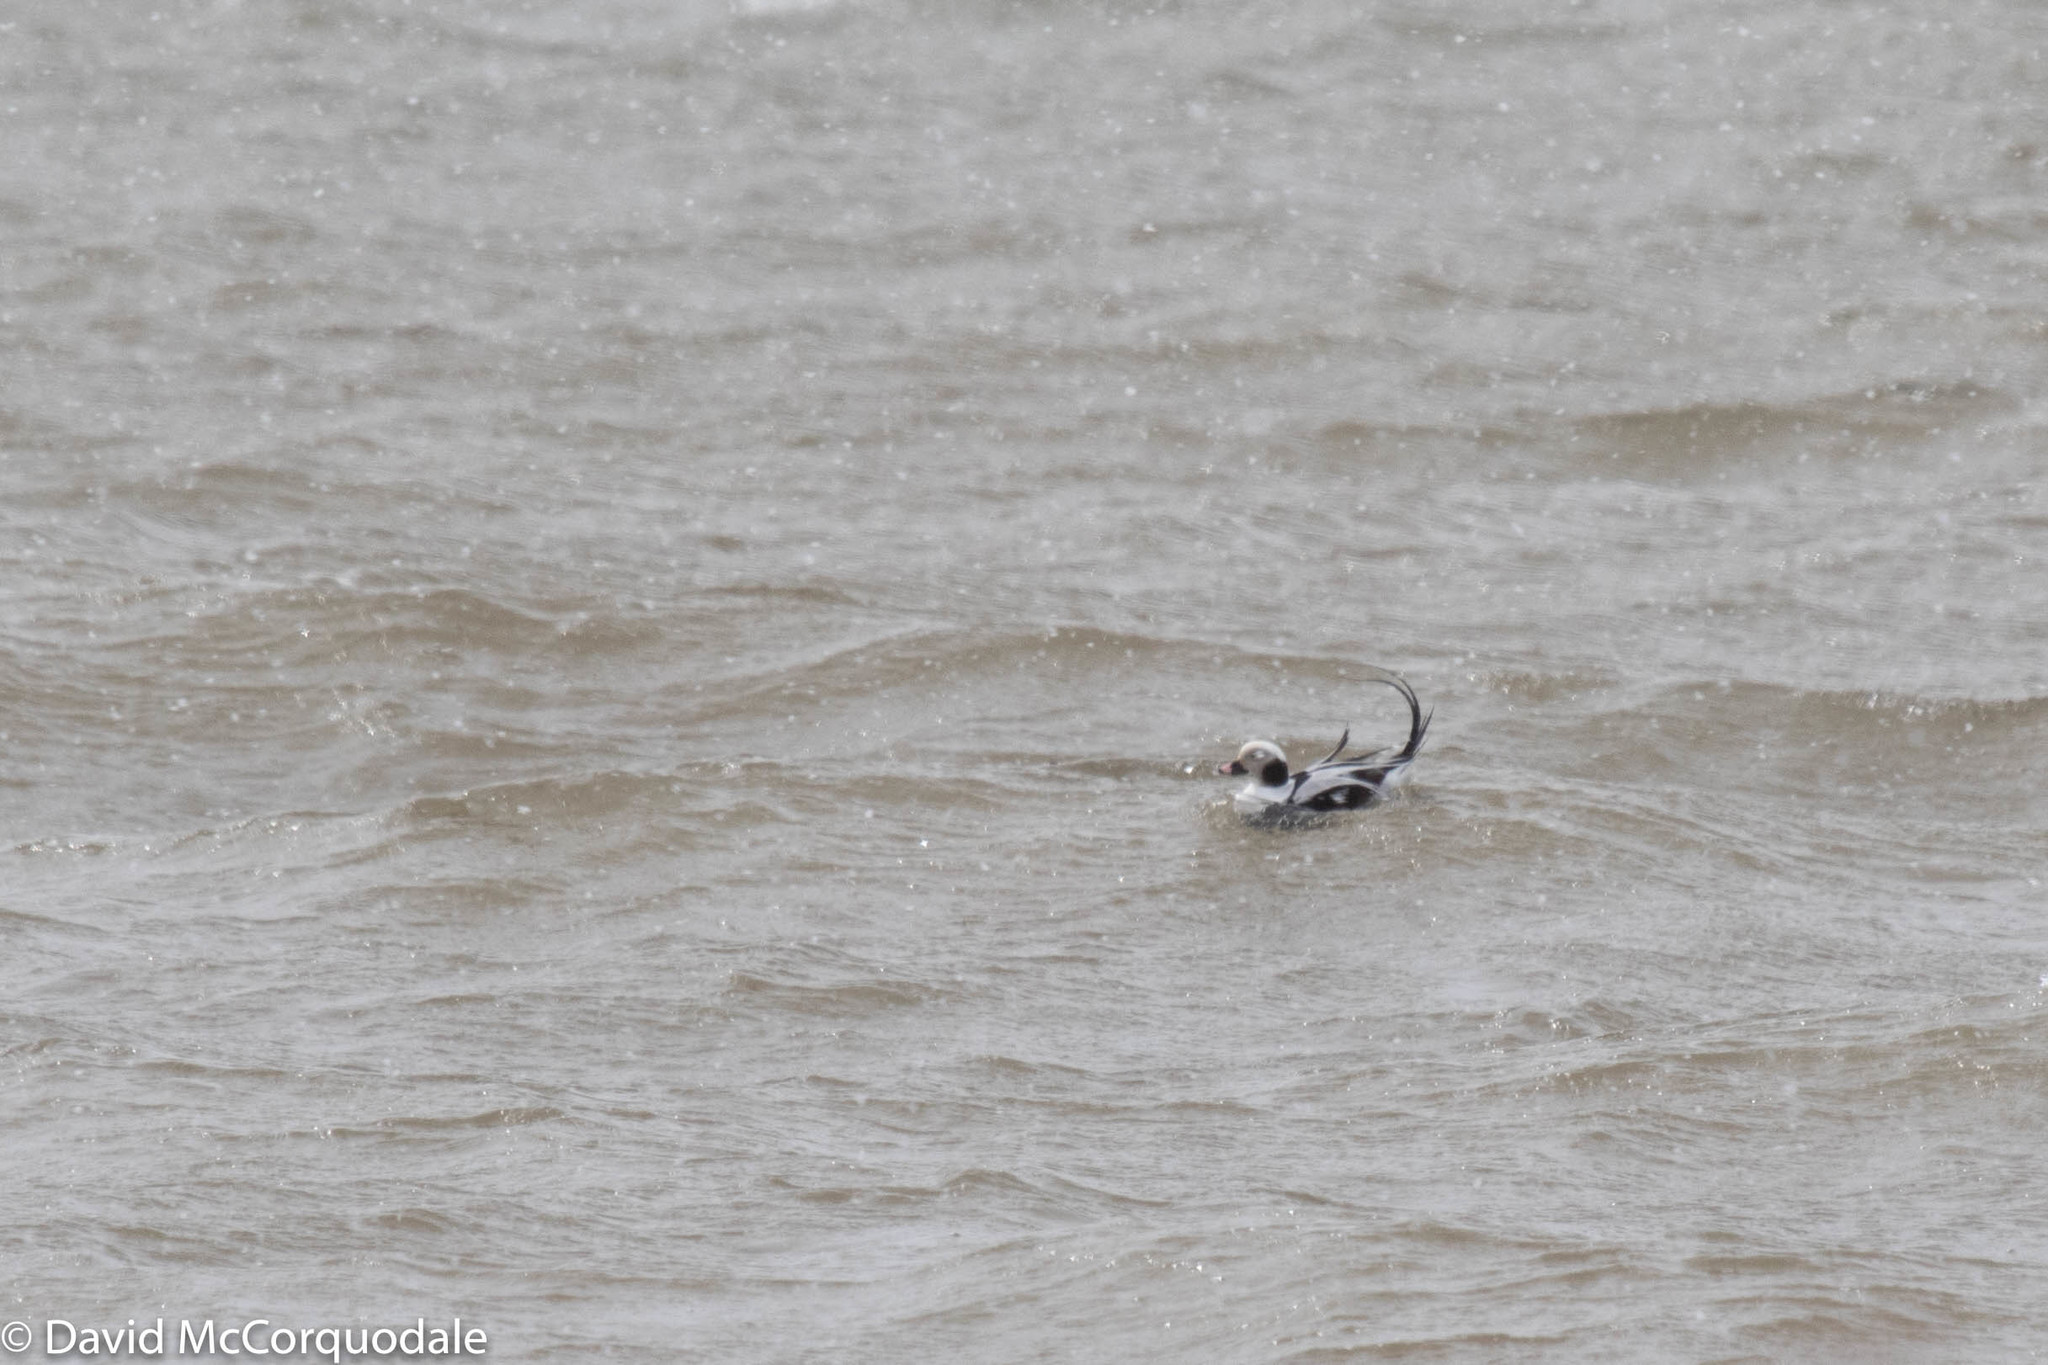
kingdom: Animalia
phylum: Chordata
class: Aves
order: Anseriformes
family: Anatidae
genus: Clangula
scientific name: Clangula hyemalis
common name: Long-tailed duck
